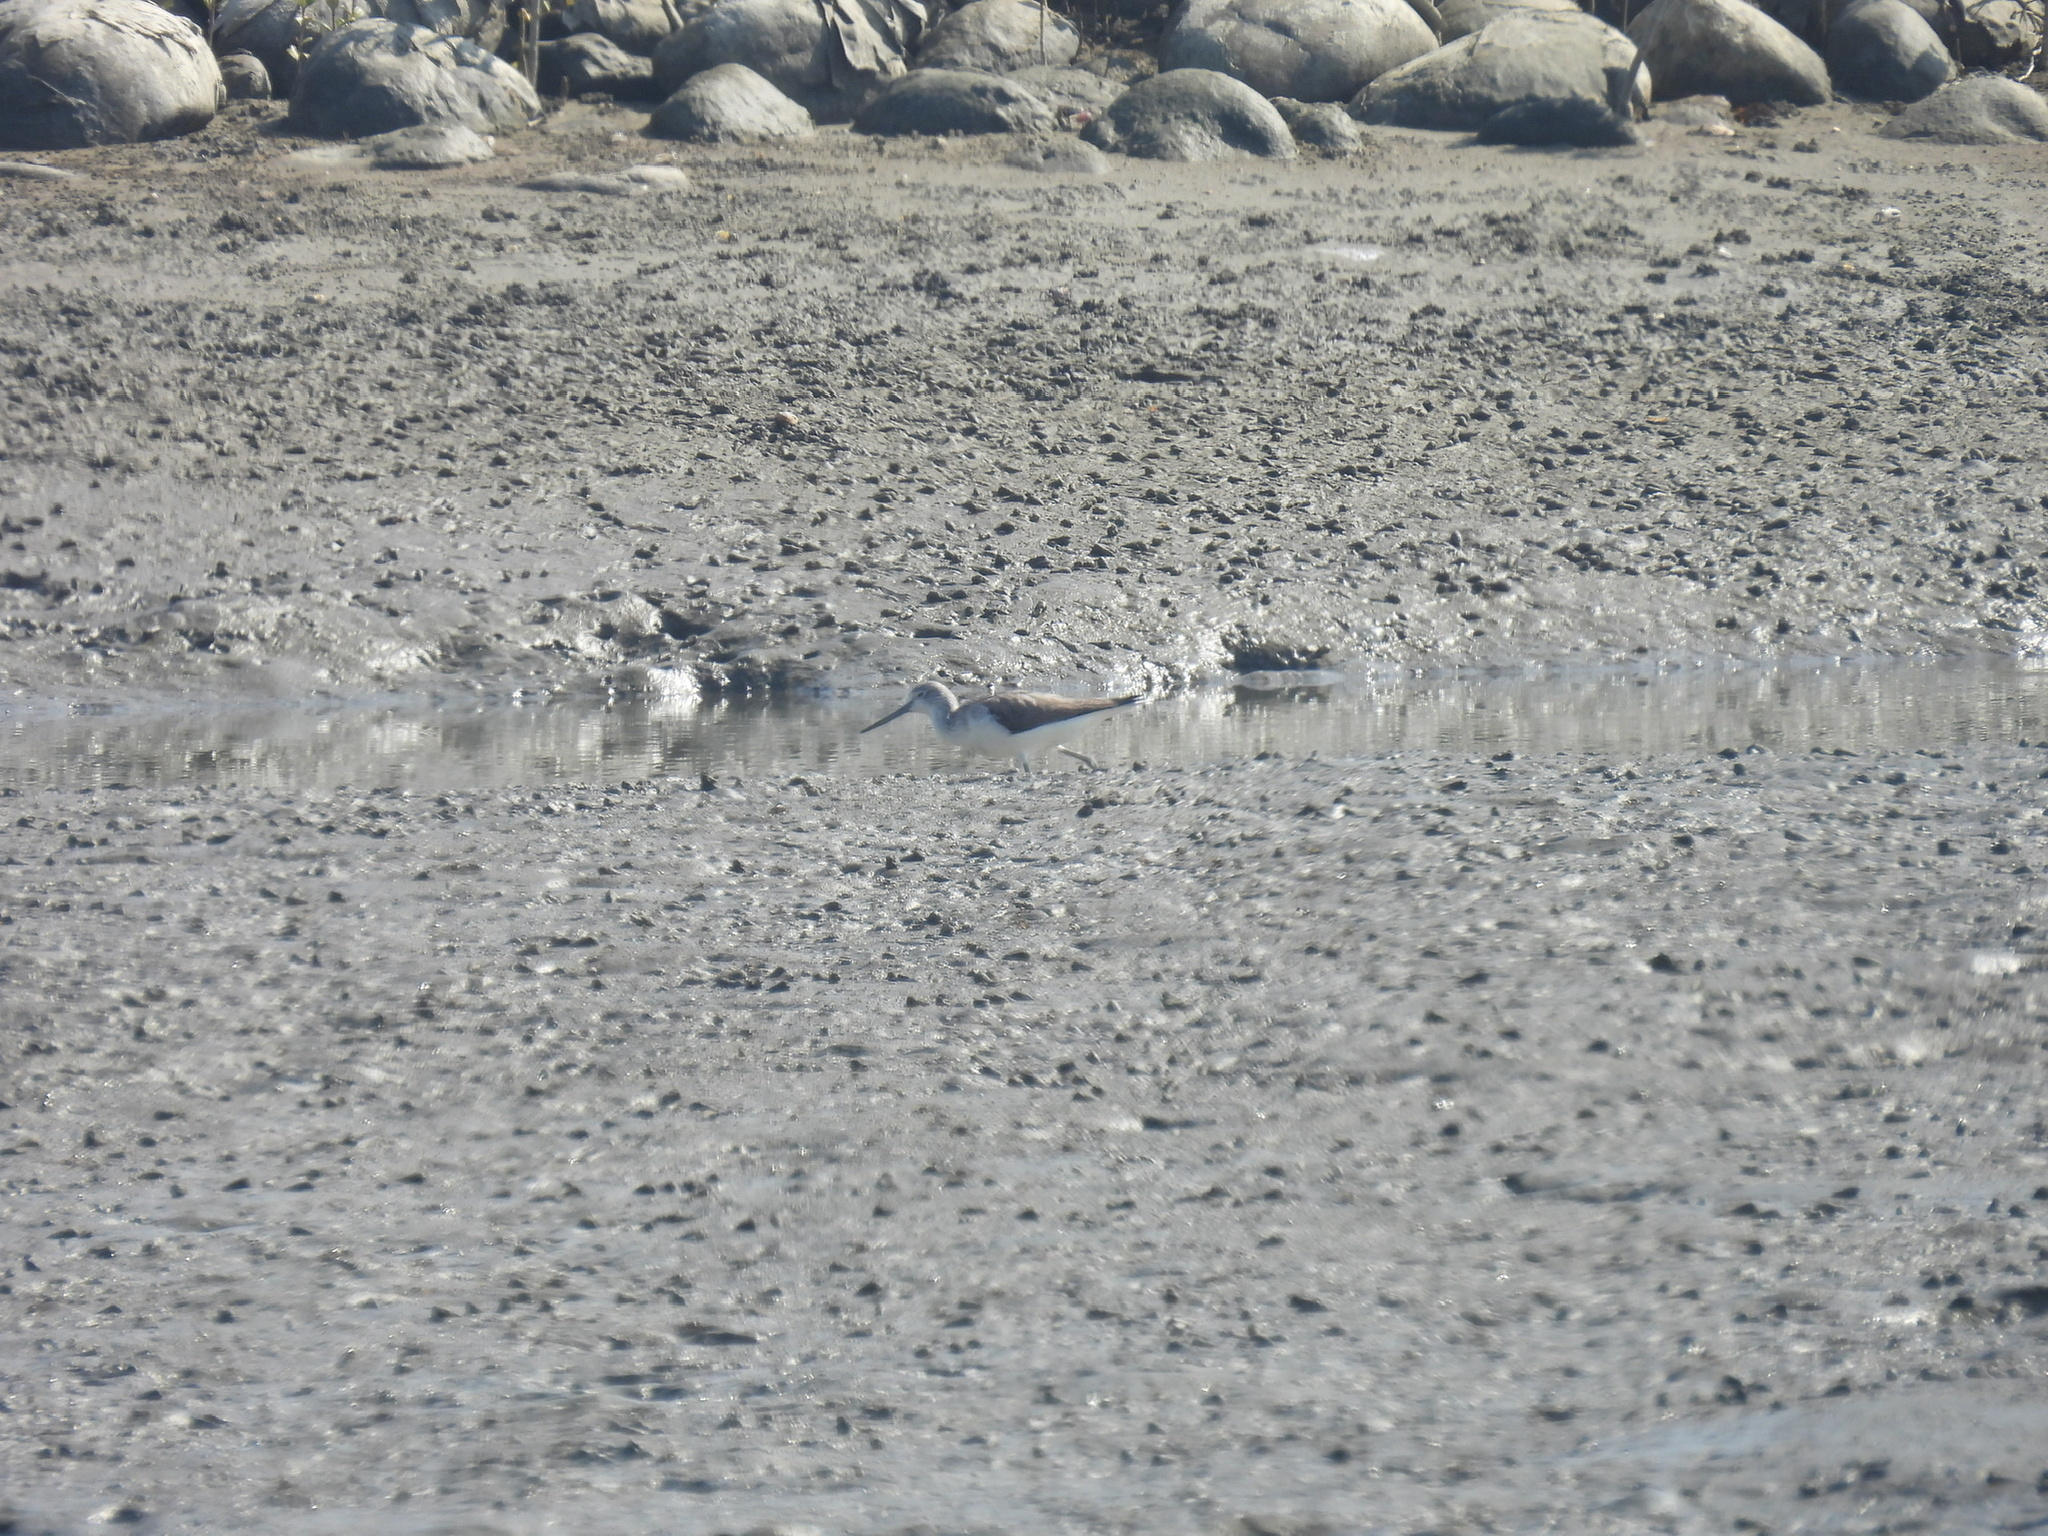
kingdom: Animalia
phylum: Chordata
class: Aves
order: Charadriiformes
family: Scolopacidae
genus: Tringa
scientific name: Tringa nebularia
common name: Common greenshank
